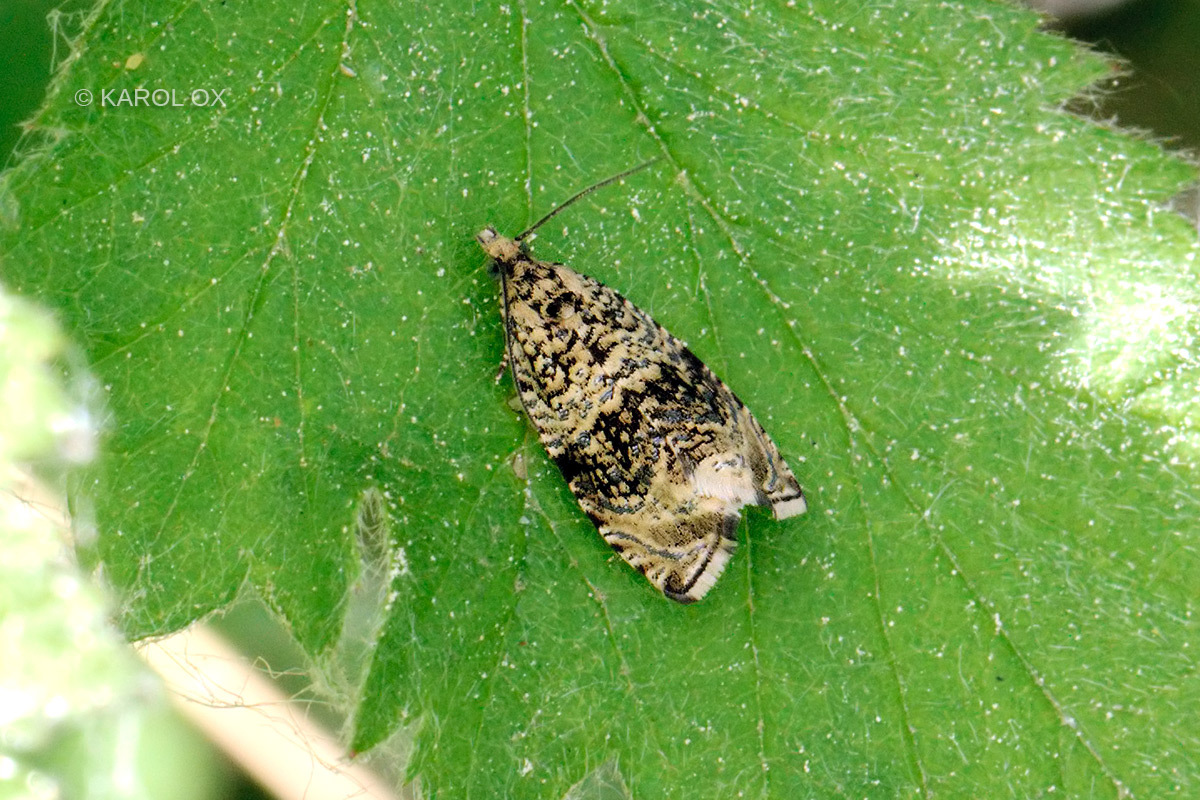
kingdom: Animalia
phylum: Arthropoda
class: Insecta
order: Lepidoptera
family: Tortricidae
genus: Syricoris
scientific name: Syricoris lacunana
